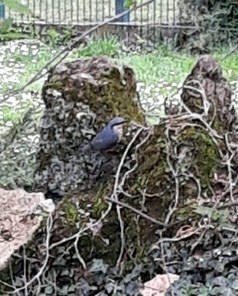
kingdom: Animalia
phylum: Chordata
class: Aves
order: Passeriformes
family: Sittidae
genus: Sitta
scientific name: Sitta europaea
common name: Eurasian nuthatch
